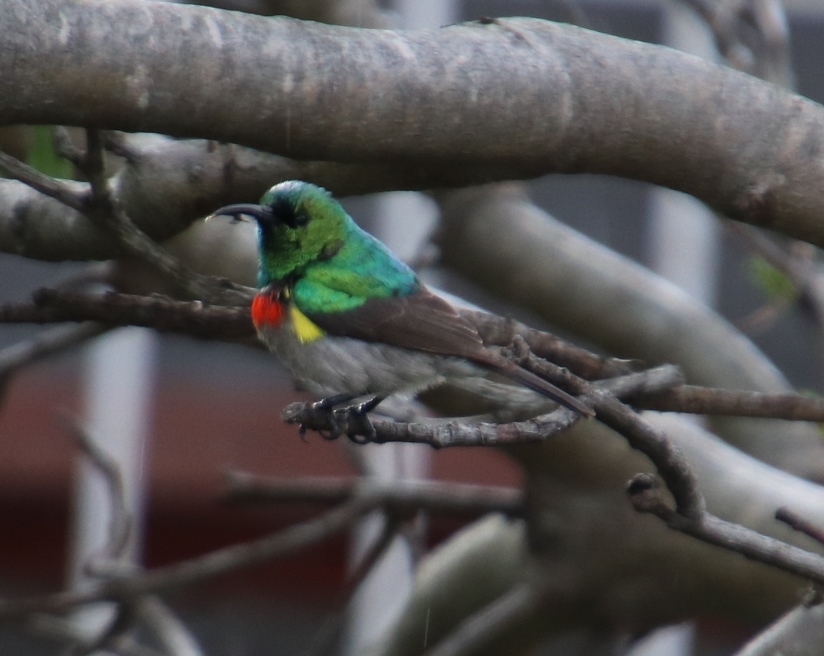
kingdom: Animalia
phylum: Chordata
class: Aves
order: Passeriformes
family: Nectariniidae
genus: Cinnyris
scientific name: Cinnyris chalybeus
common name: Southern double-collared sunbird
